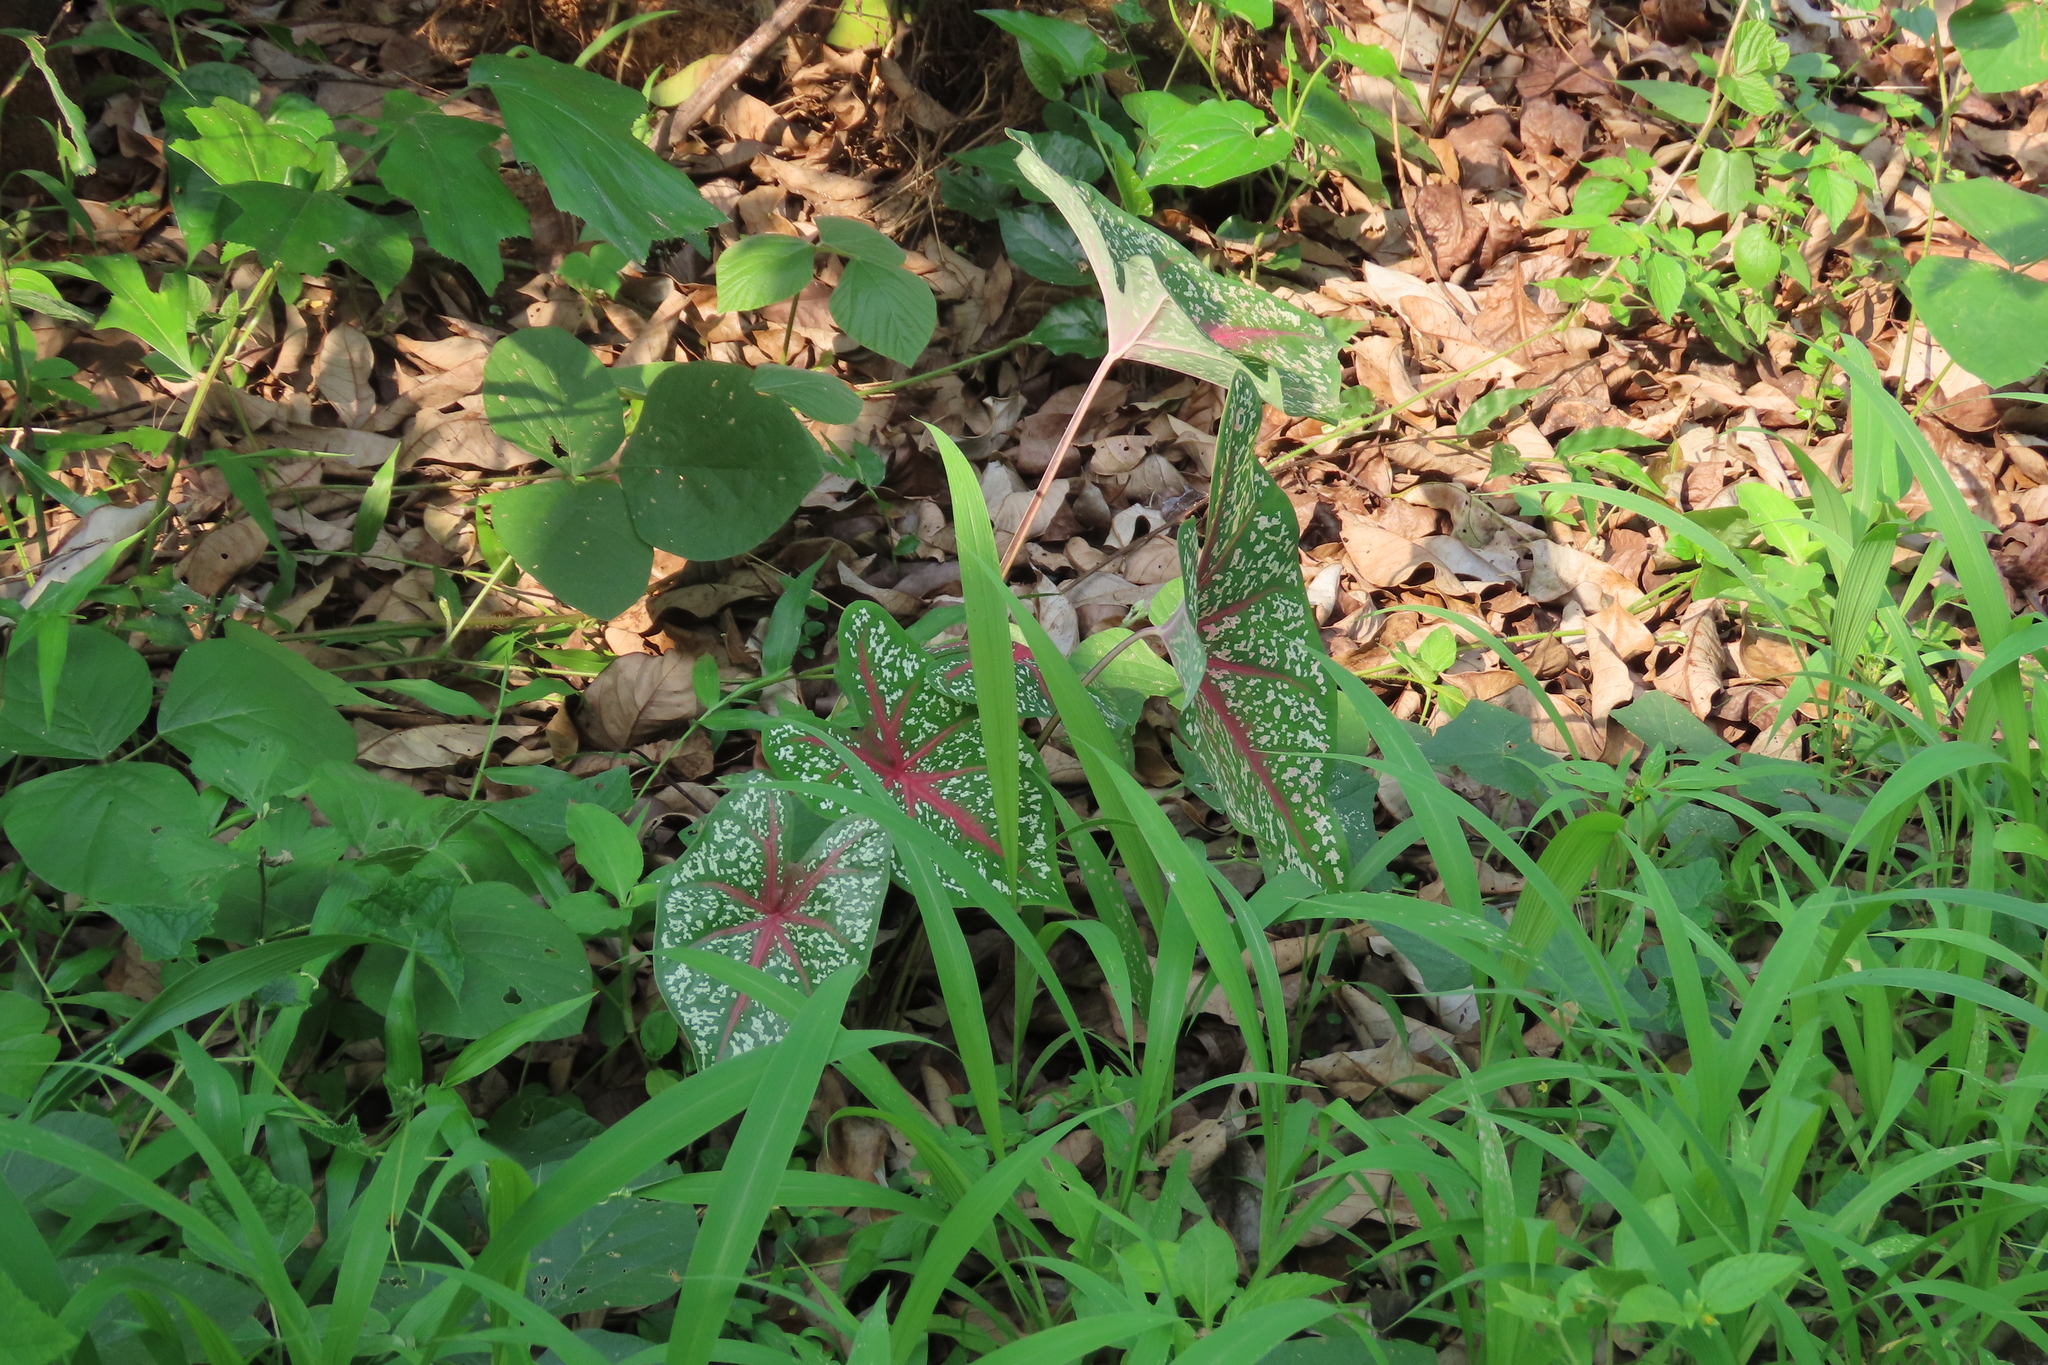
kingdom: Plantae
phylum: Tracheophyta
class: Liliopsida
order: Alismatales
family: Araceae
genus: Caladium
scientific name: Caladium bicolor
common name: Artist's pallet
